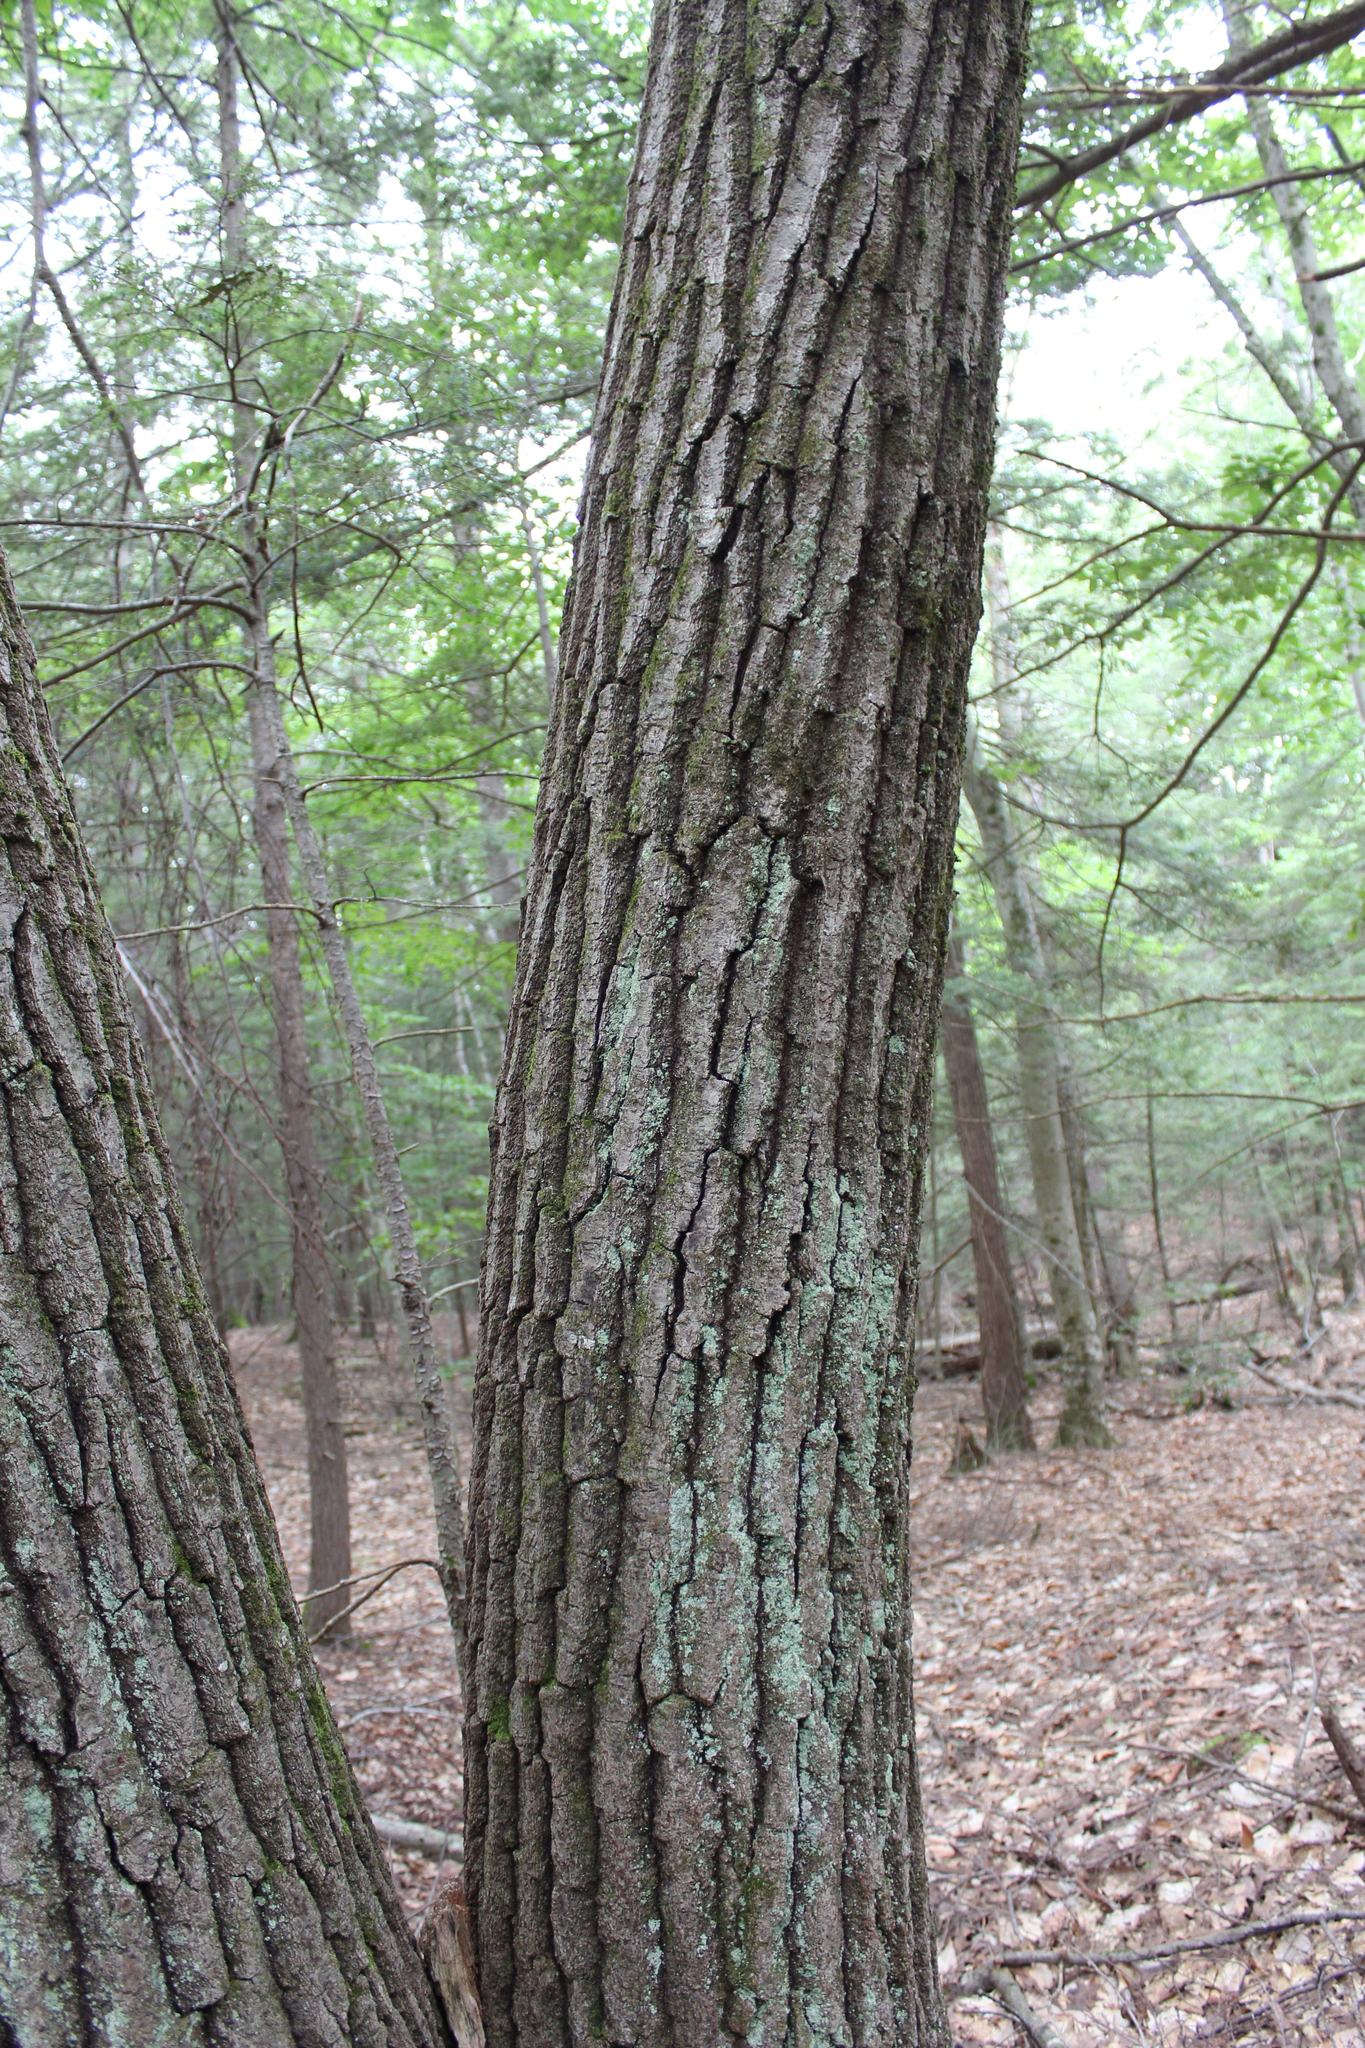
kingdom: Plantae
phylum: Tracheophyta
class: Magnoliopsida
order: Fagales
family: Fagaceae
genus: Quercus
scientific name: Quercus rubra
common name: Red oak
